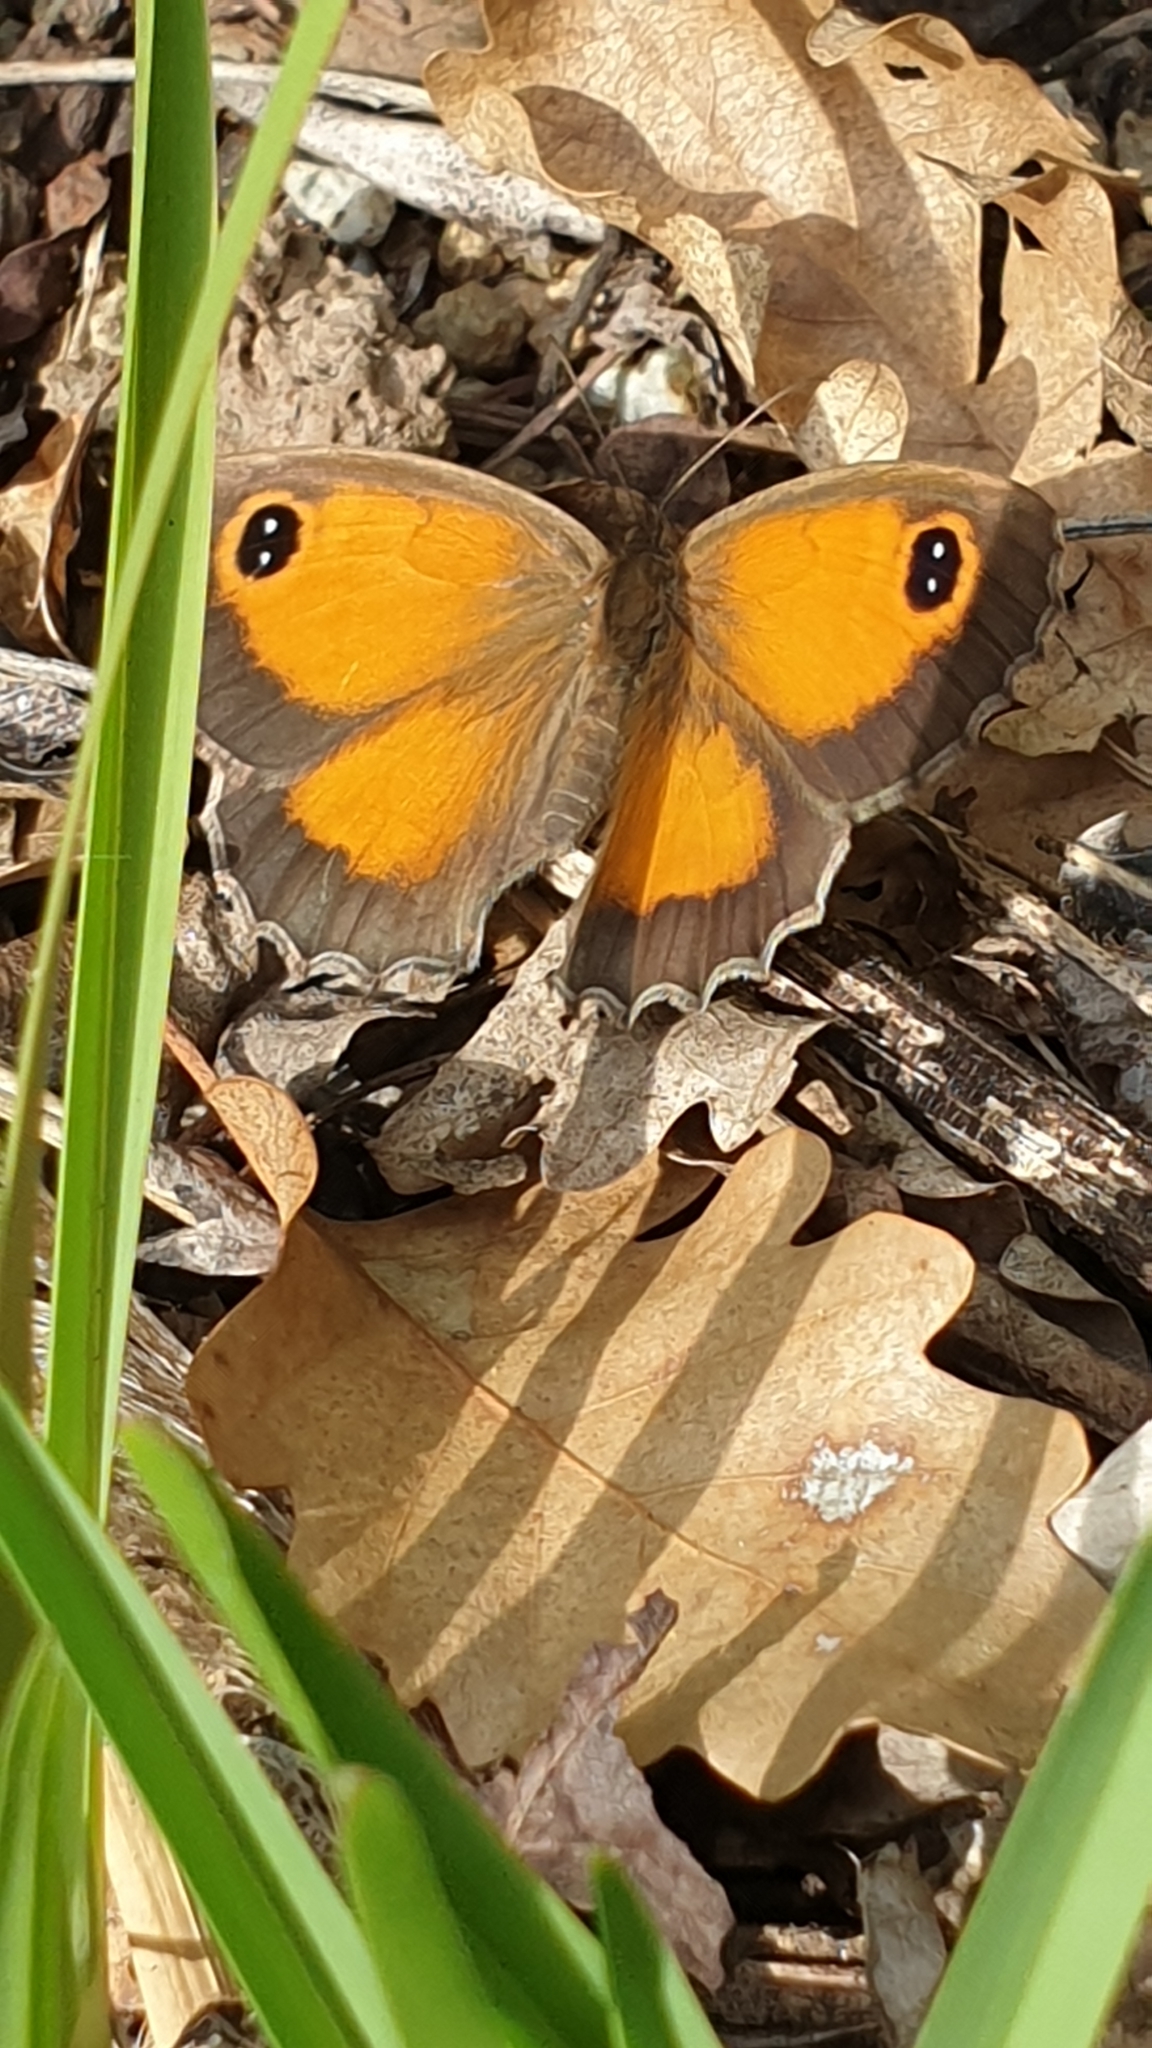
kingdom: Animalia
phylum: Arthropoda
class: Insecta
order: Lepidoptera
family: Nymphalidae
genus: Pyronia
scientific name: Pyronia cecilia
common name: Southern gatekeeper
